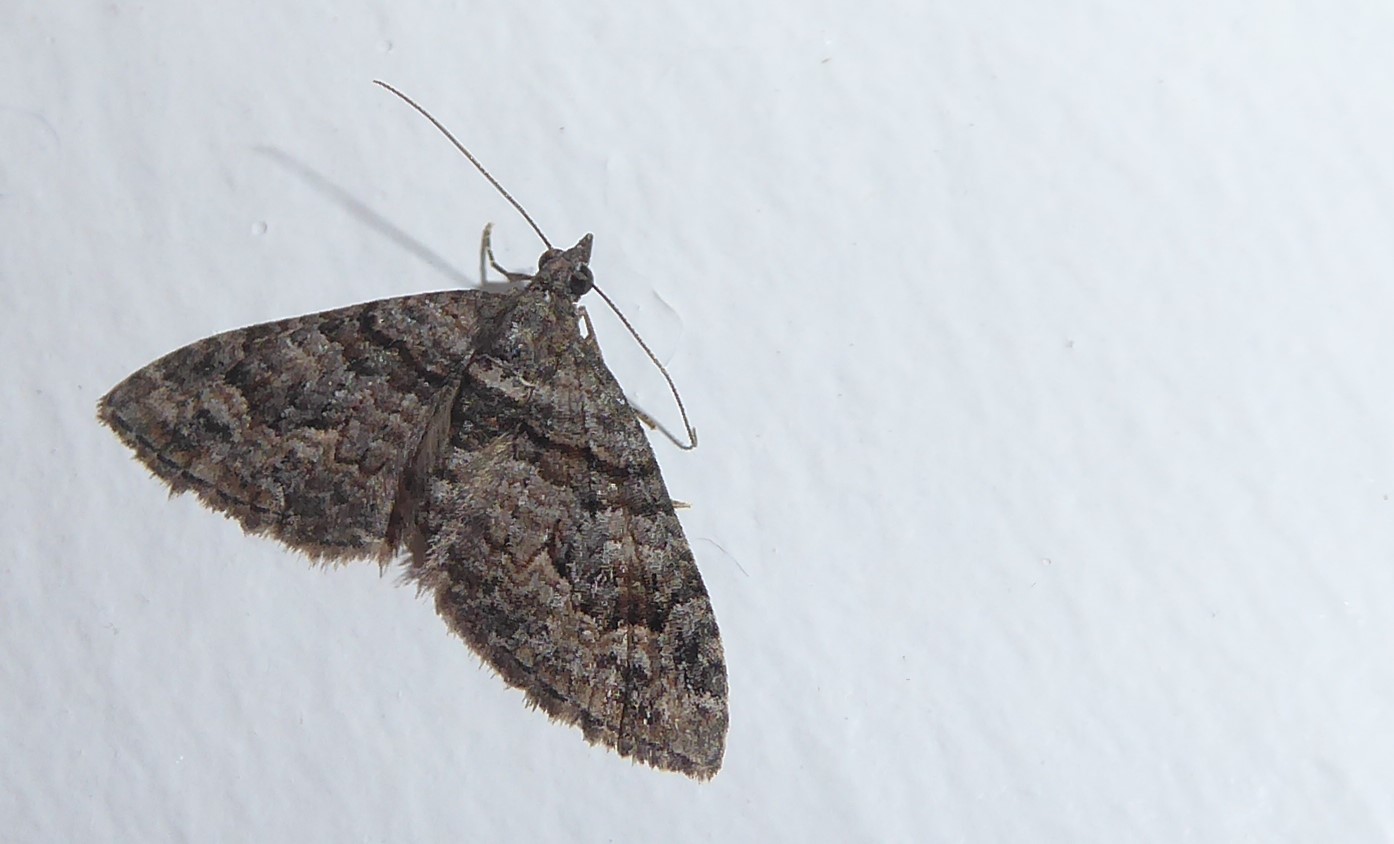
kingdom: Animalia
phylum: Arthropoda
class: Insecta
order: Lepidoptera
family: Geometridae
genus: Phrissogonus
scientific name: Phrissogonus laticostata
